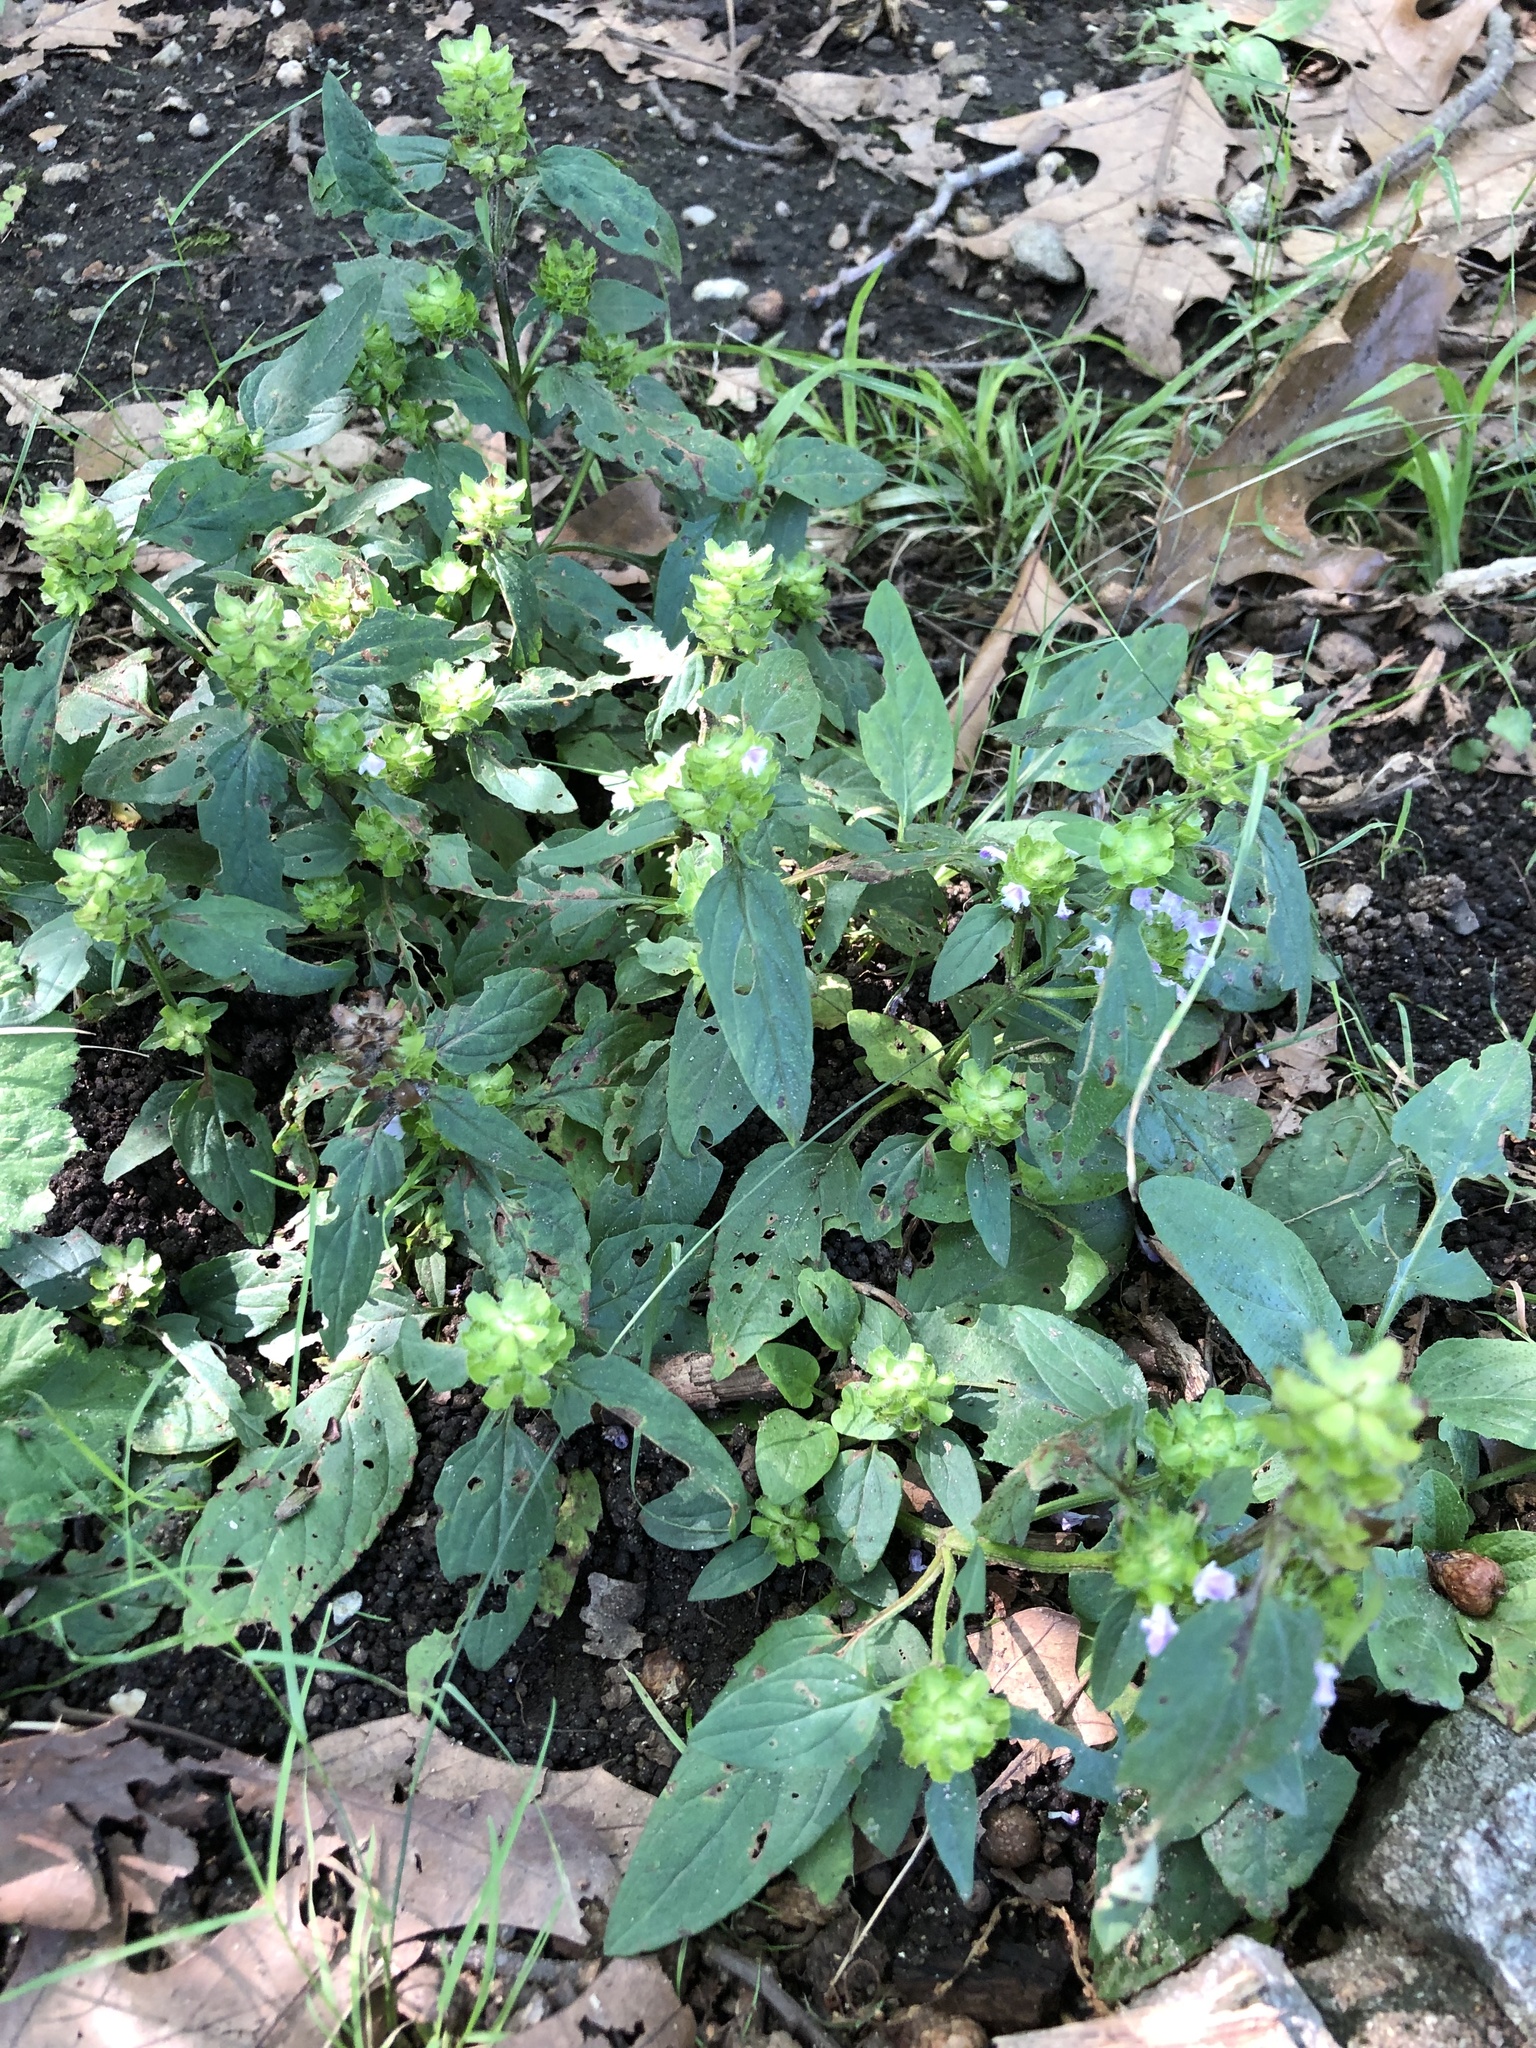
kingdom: Plantae
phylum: Tracheophyta
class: Magnoliopsida
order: Lamiales
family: Lamiaceae
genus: Prunella
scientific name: Prunella vulgaris
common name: Heal-all
